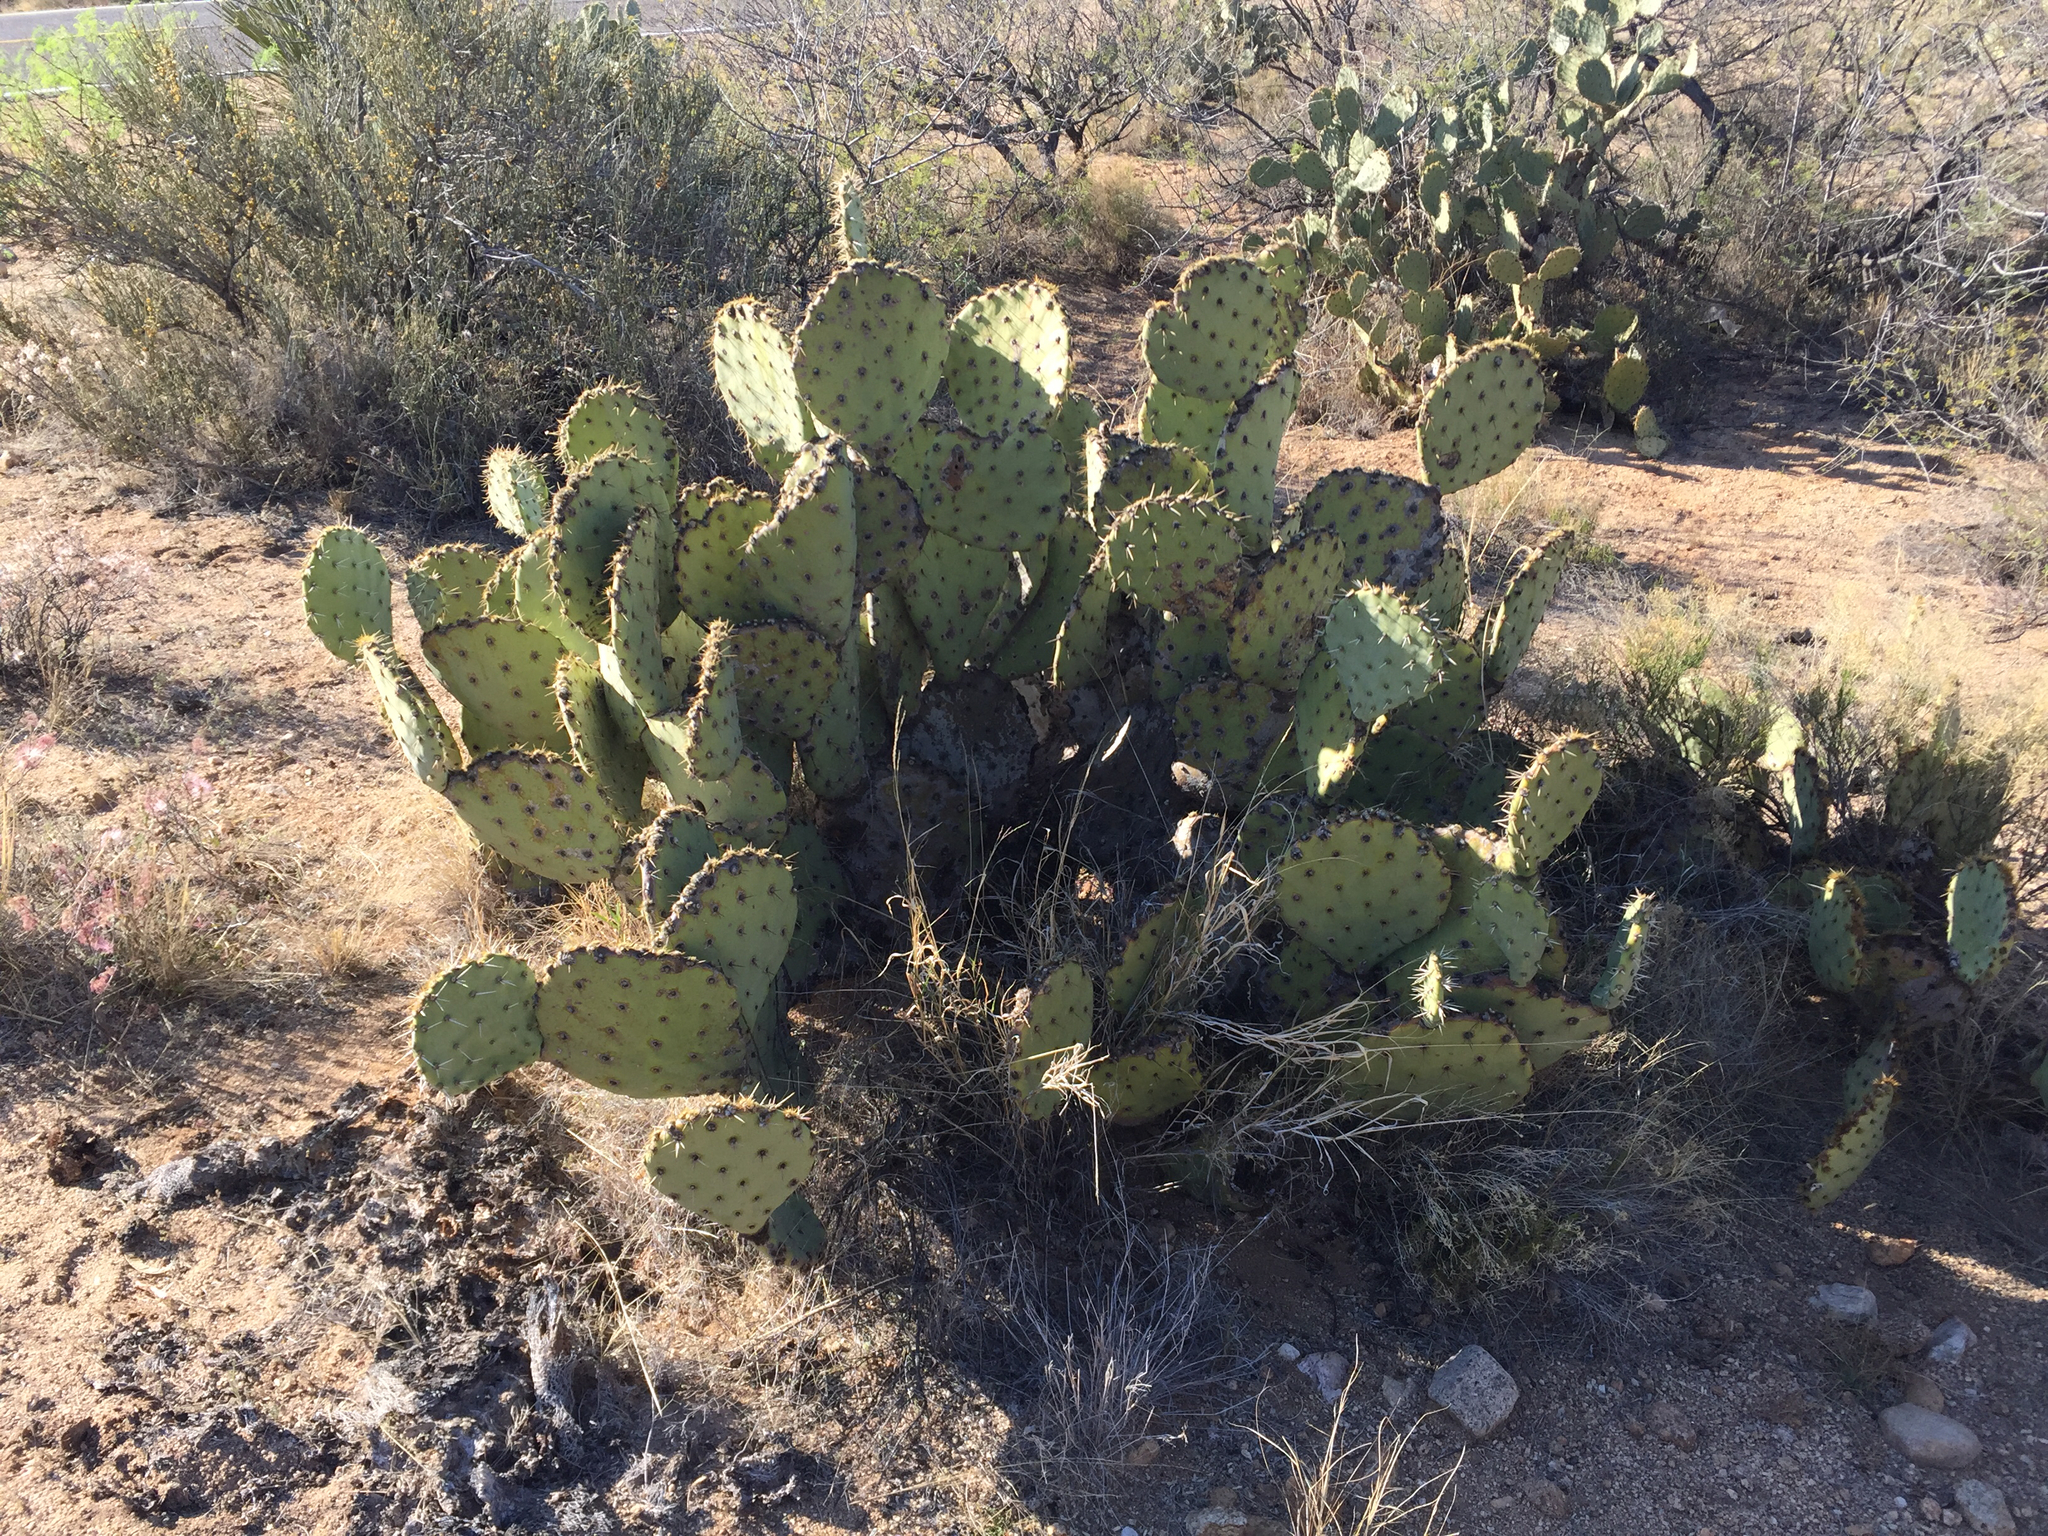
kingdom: Plantae
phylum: Tracheophyta
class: Magnoliopsida
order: Caryophyllales
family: Cactaceae
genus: Opuntia
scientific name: Opuntia engelmannii
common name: Cactus-apple
